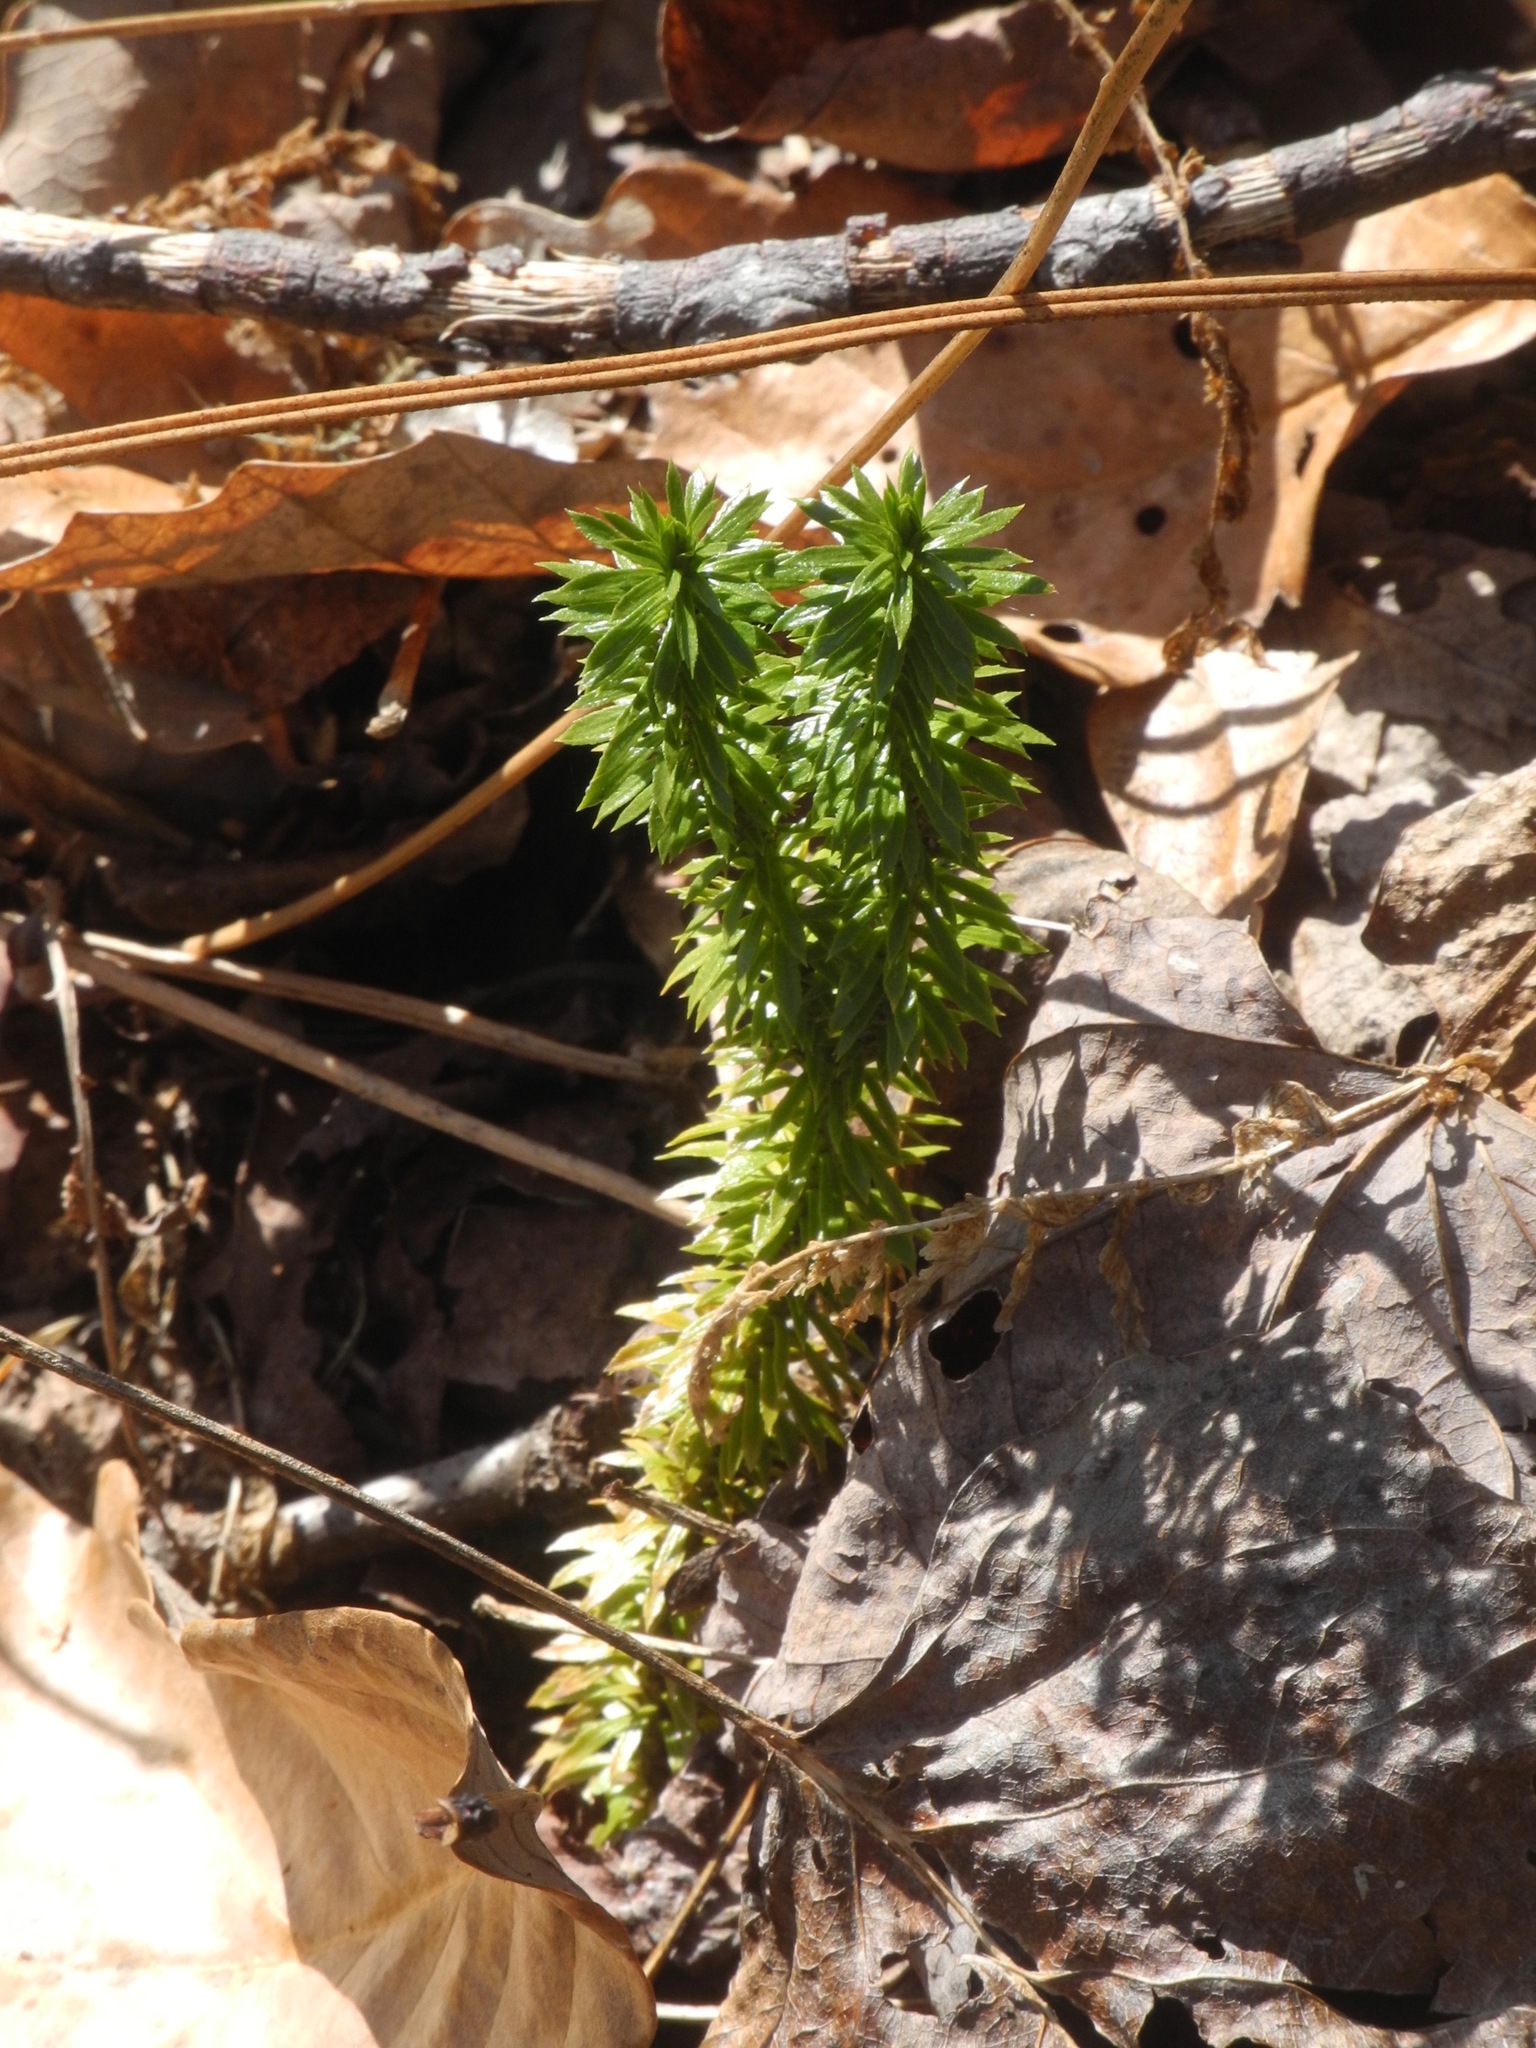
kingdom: Plantae
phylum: Tracheophyta
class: Lycopodiopsida
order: Lycopodiales
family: Lycopodiaceae
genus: Huperzia
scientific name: Huperzia lucidula
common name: Shining clubmoss
